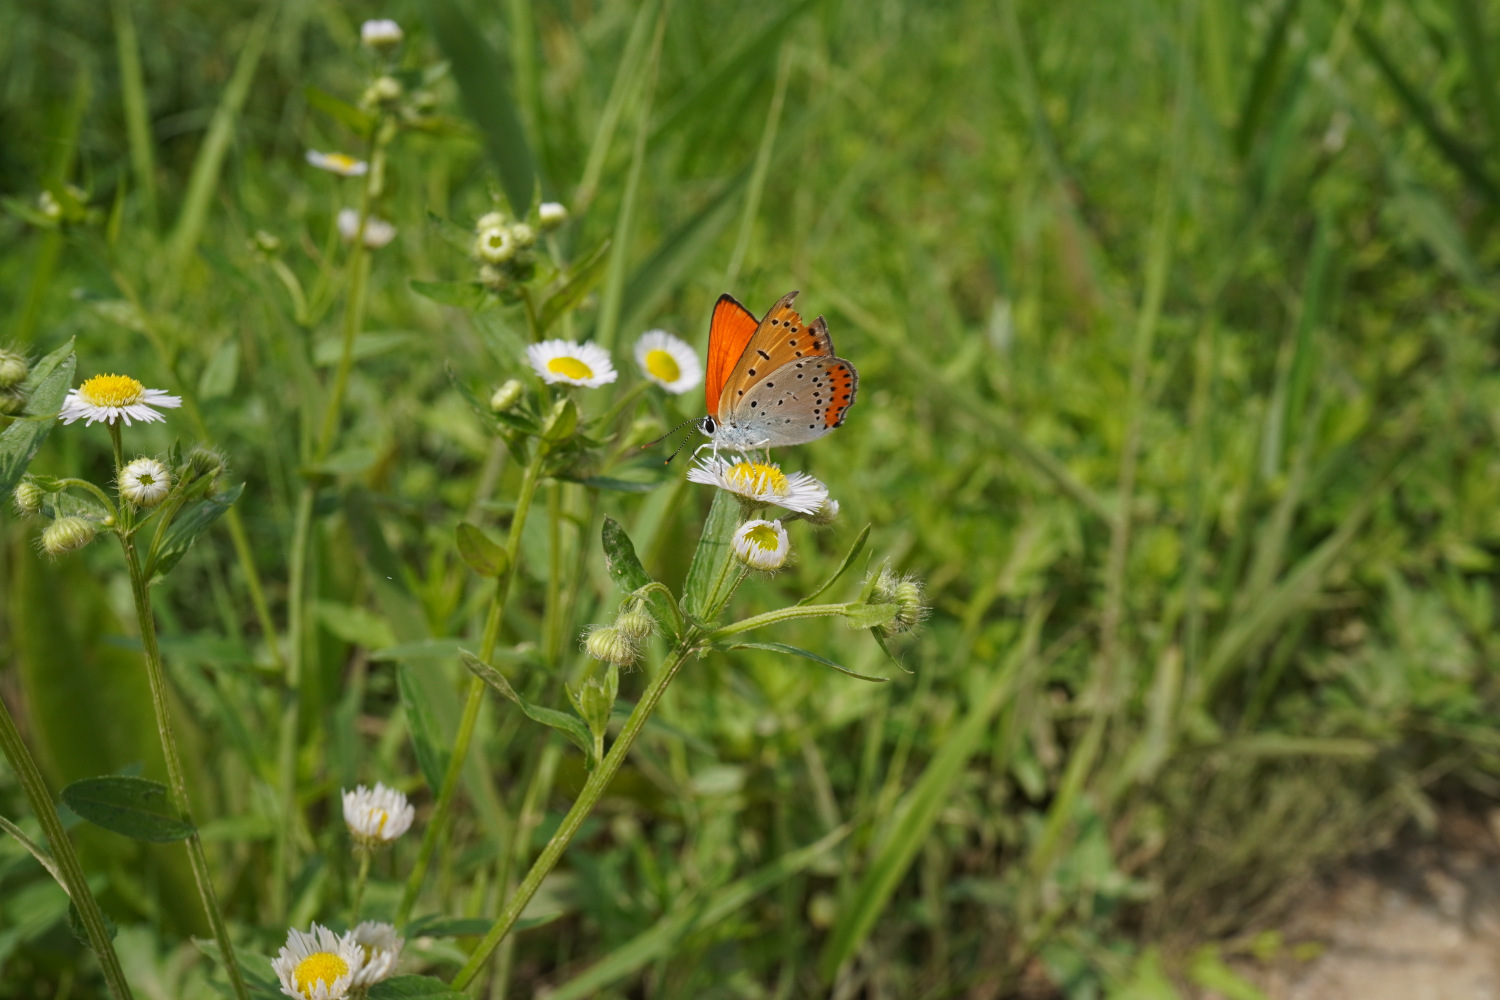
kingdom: Animalia
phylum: Arthropoda
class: Insecta
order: Lepidoptera
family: Lycaenidae
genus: Lycaena
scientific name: Lycaena dispar
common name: Large copper
